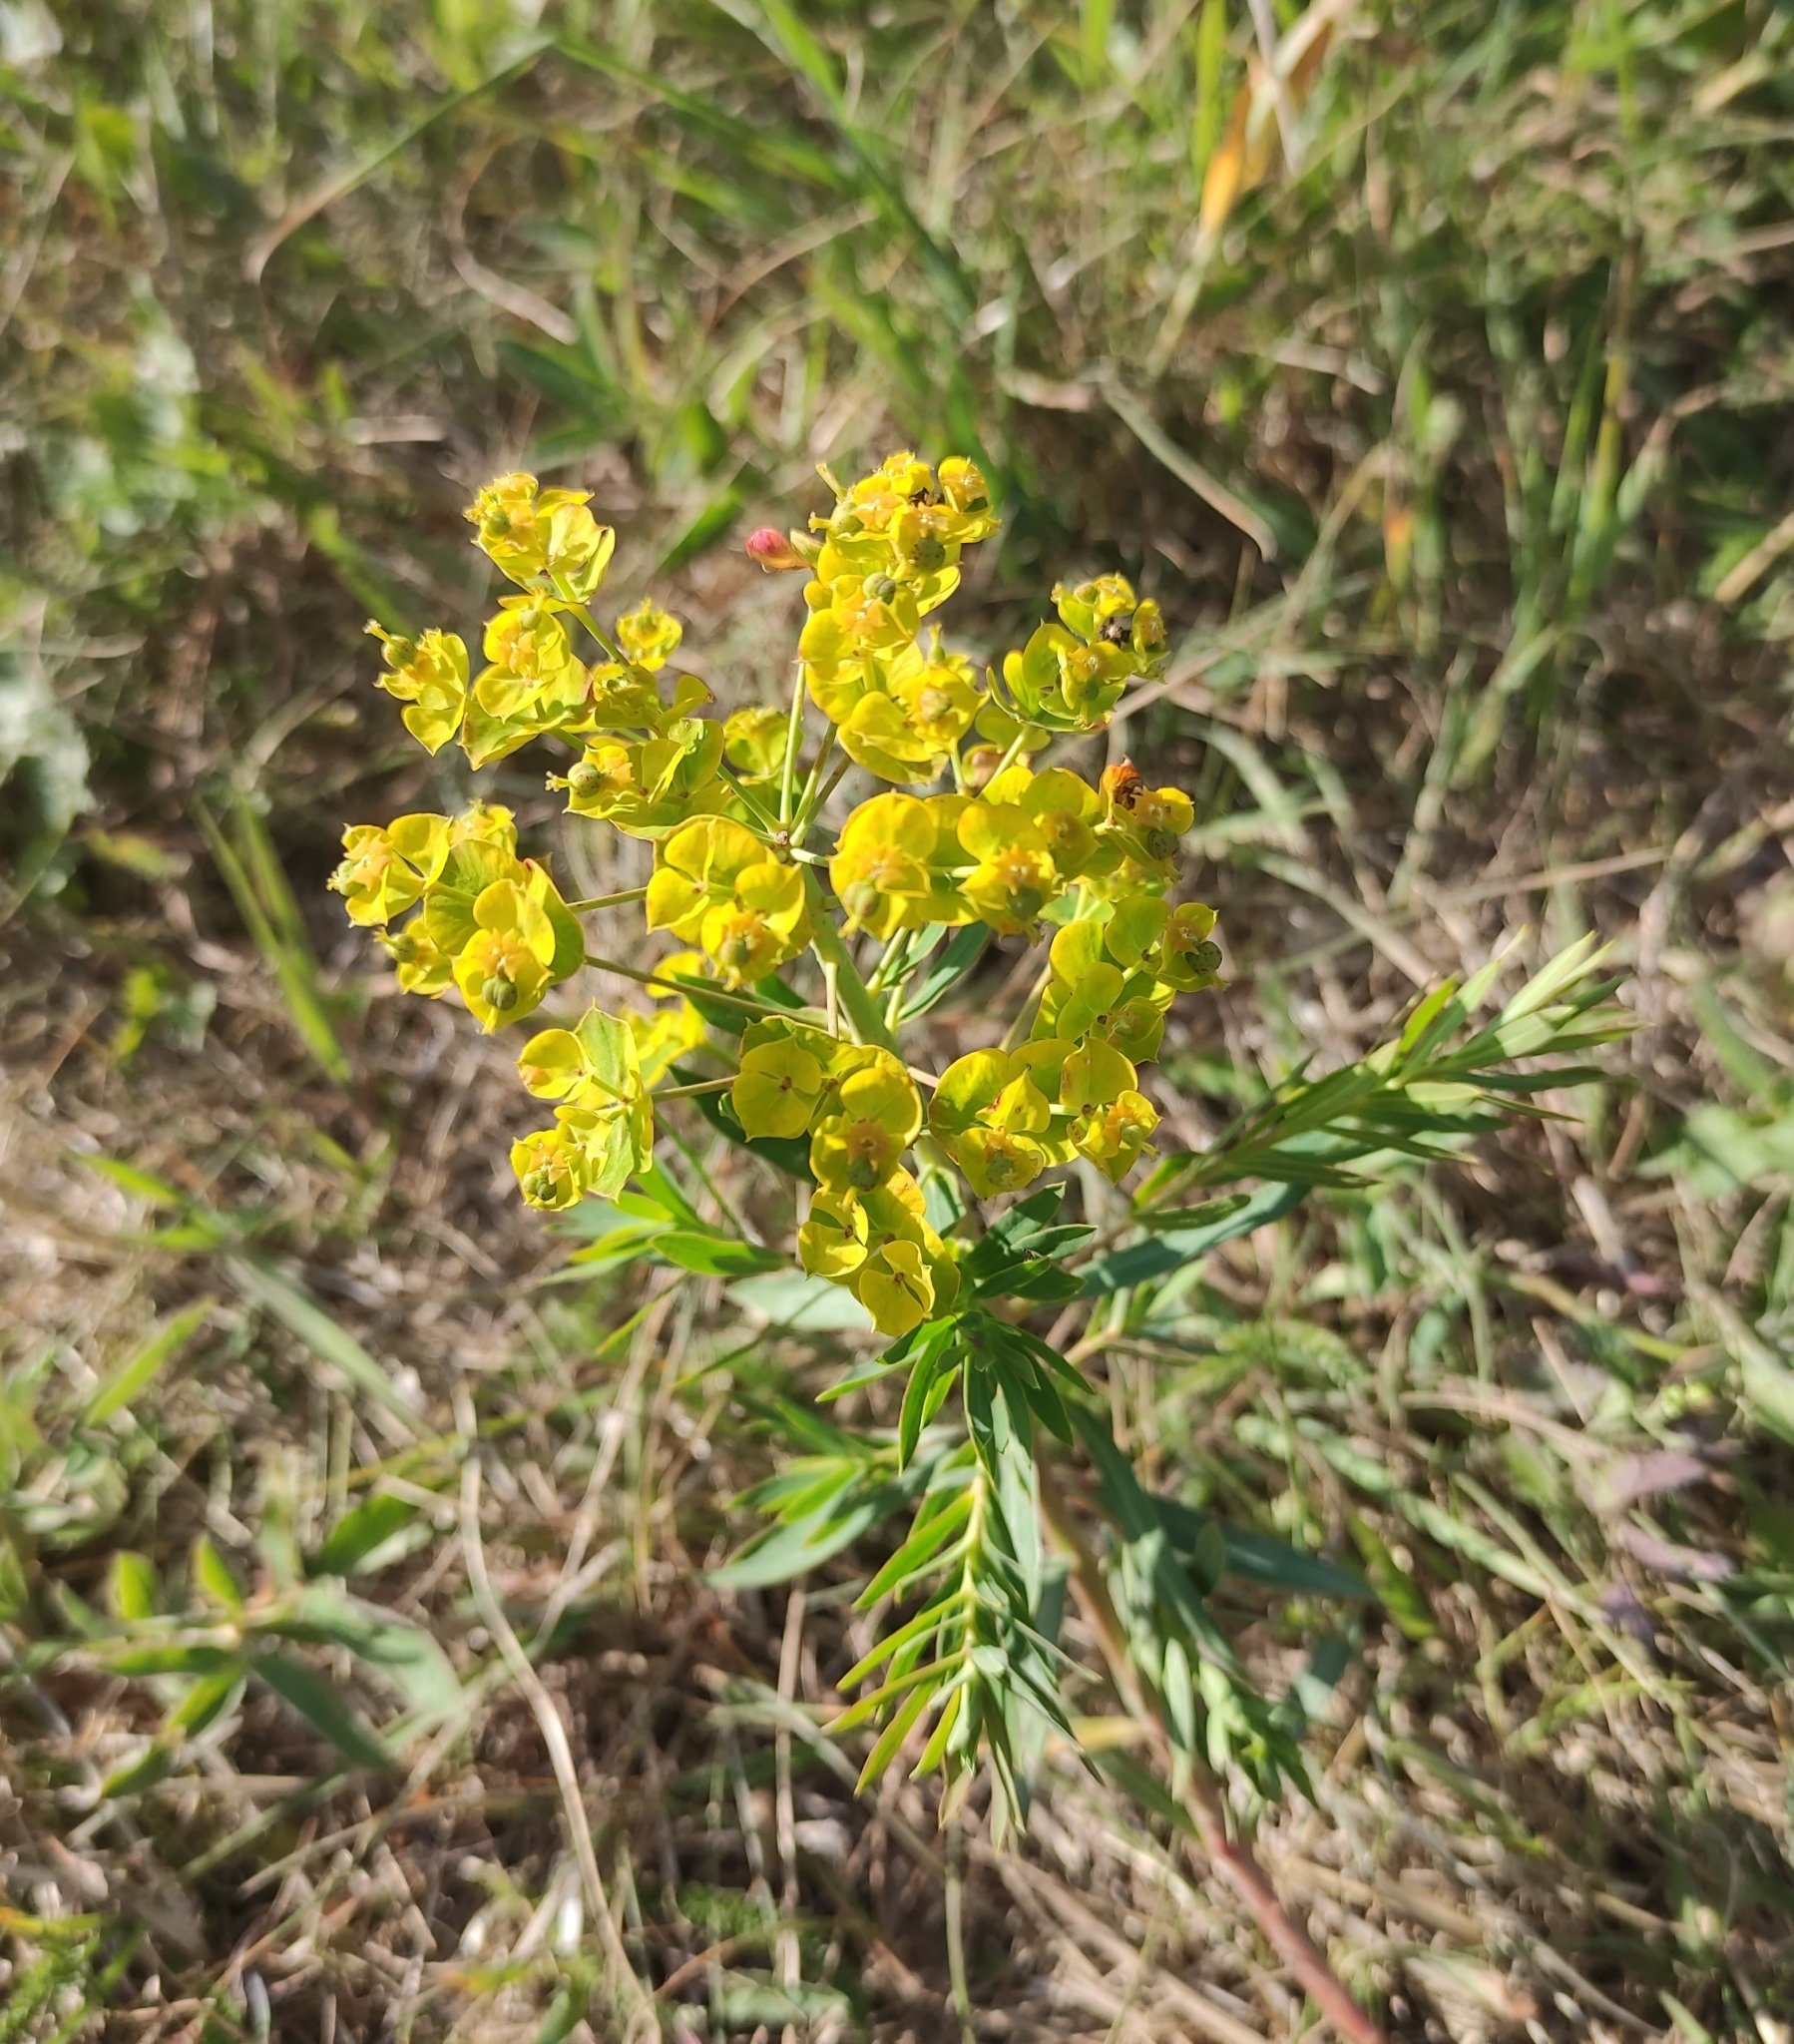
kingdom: Plantae
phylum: Tracheophyta
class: Magnoliopsida
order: Malpighiales
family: Euphorbiaceae
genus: Euphorbia
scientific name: Euphorbia virgata
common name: Leafy spurge
